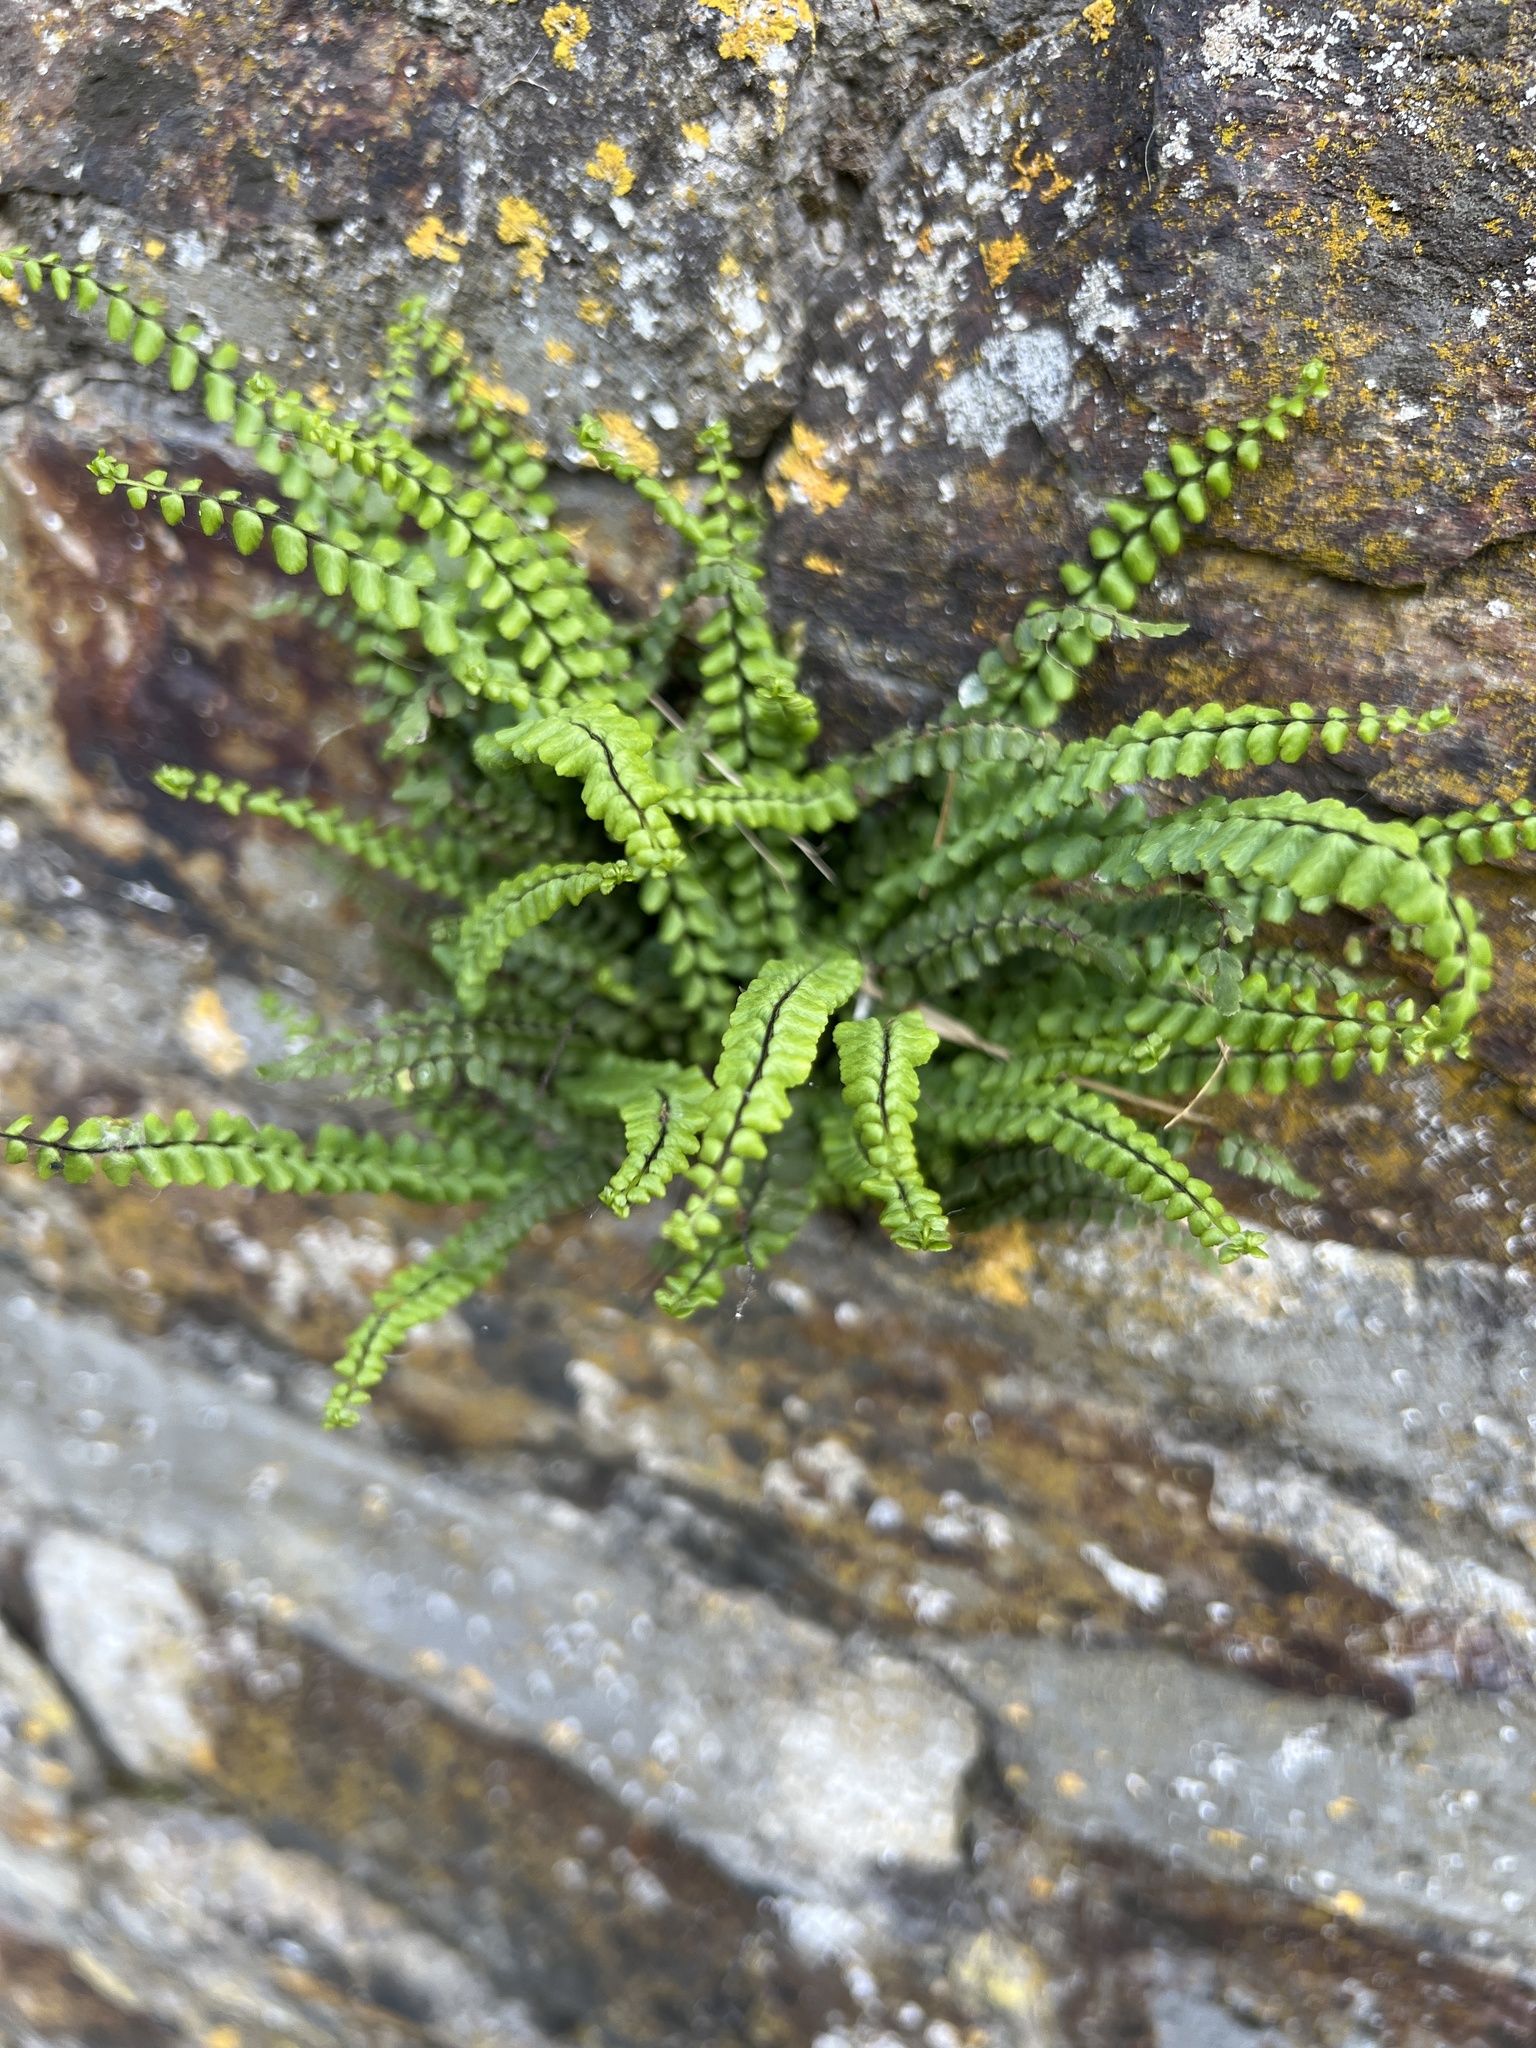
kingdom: Plantae
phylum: Tracheophyta
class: Polypodiopsida
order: Polypodiales
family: Aspleniaceae
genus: Asplenium
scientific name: Asplenium trichomanes
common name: Maidenhair spleenwort
